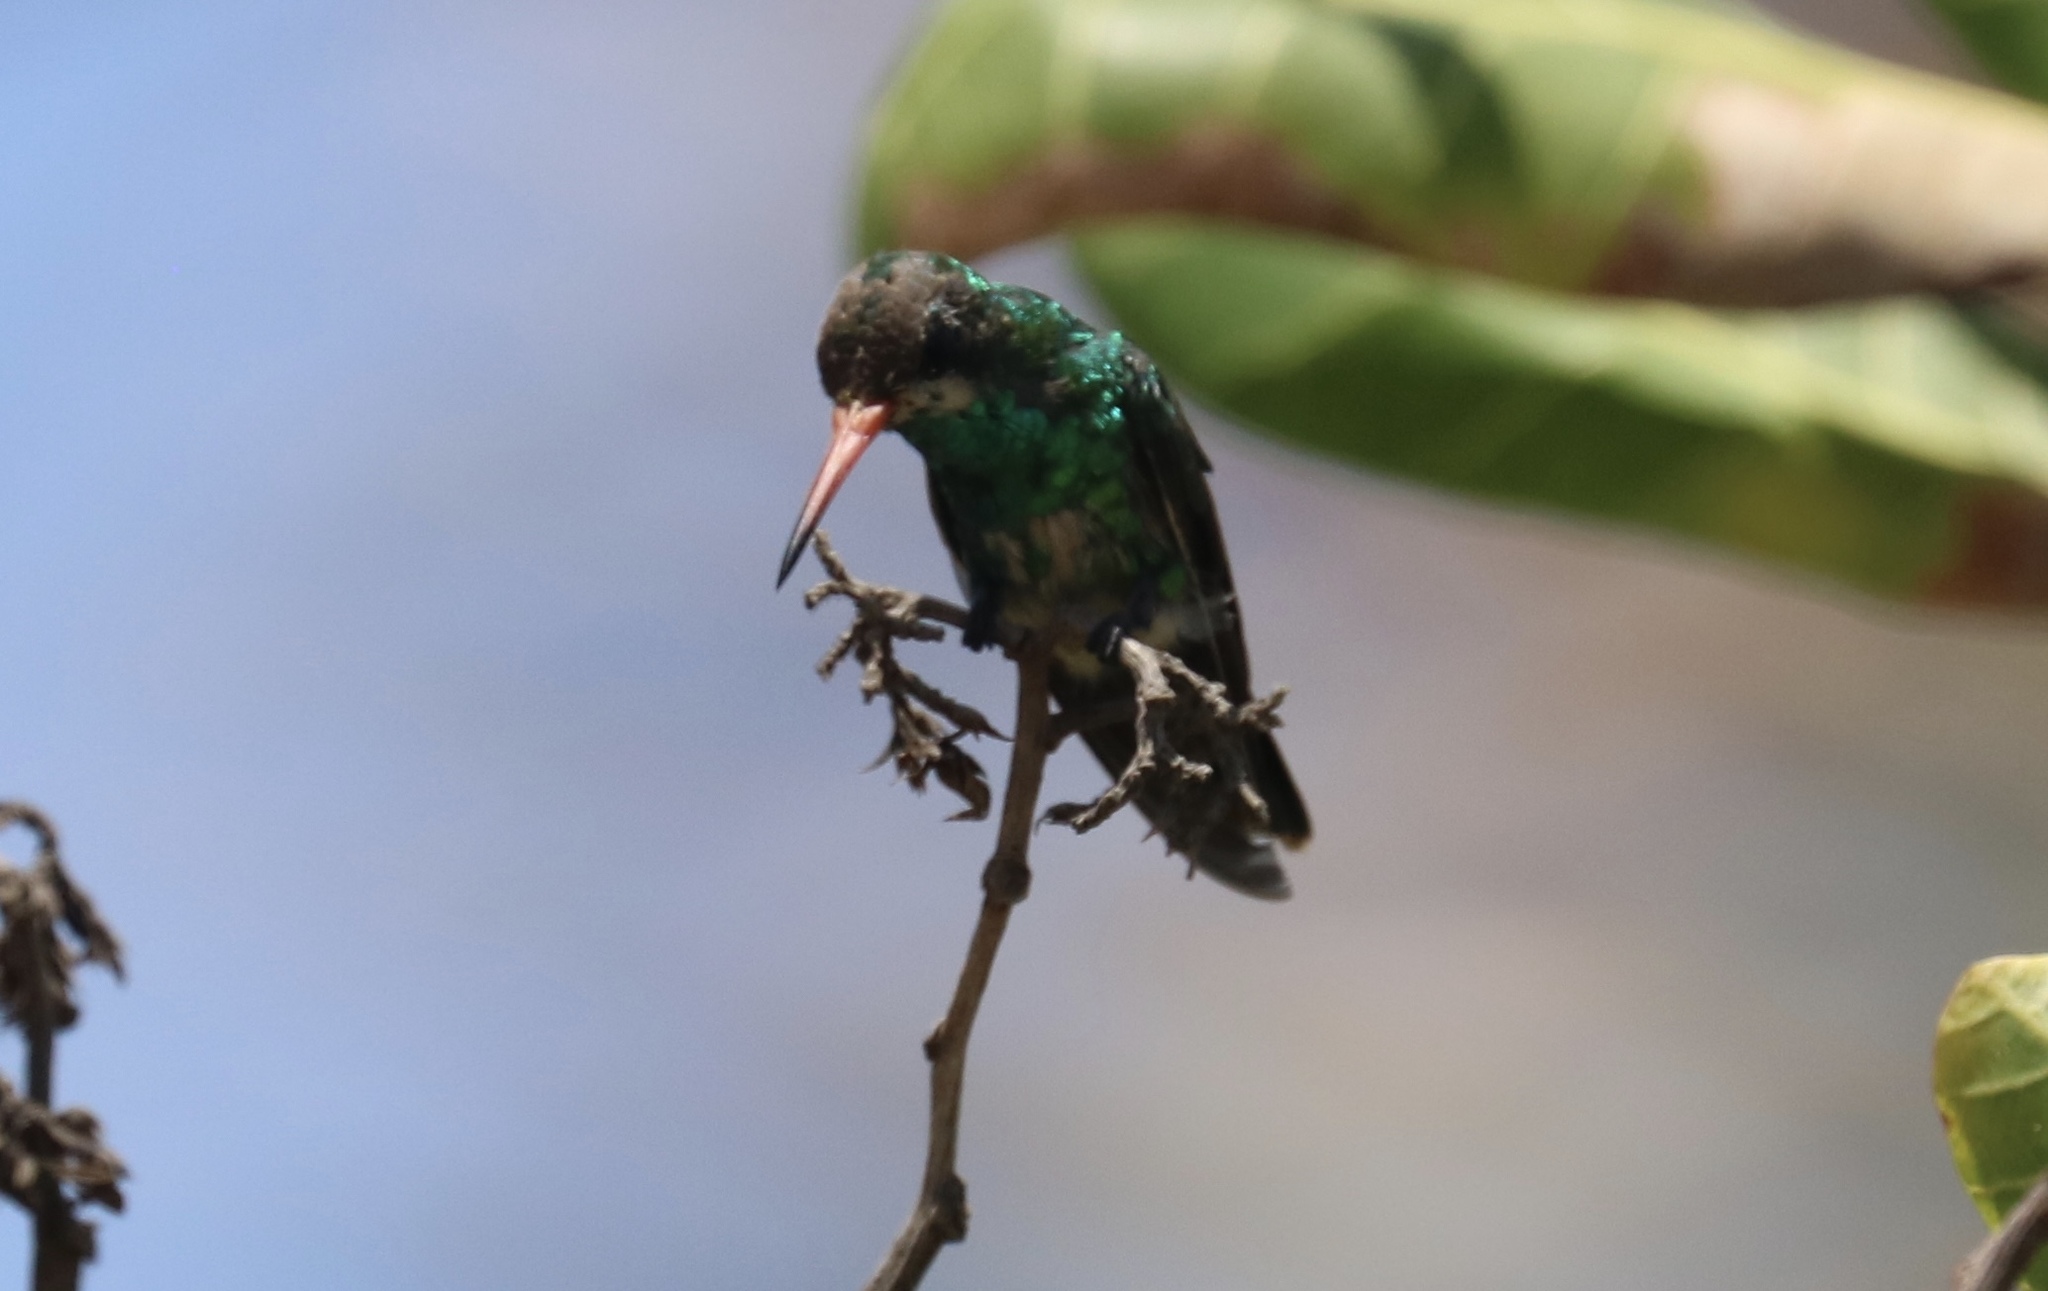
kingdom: Animalia
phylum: Chordata
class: Aves
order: Apodiformes
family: Trochilidae
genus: Chlorostilbon
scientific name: Chlorostilbon lucidus
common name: Glittering-bellied emerald
